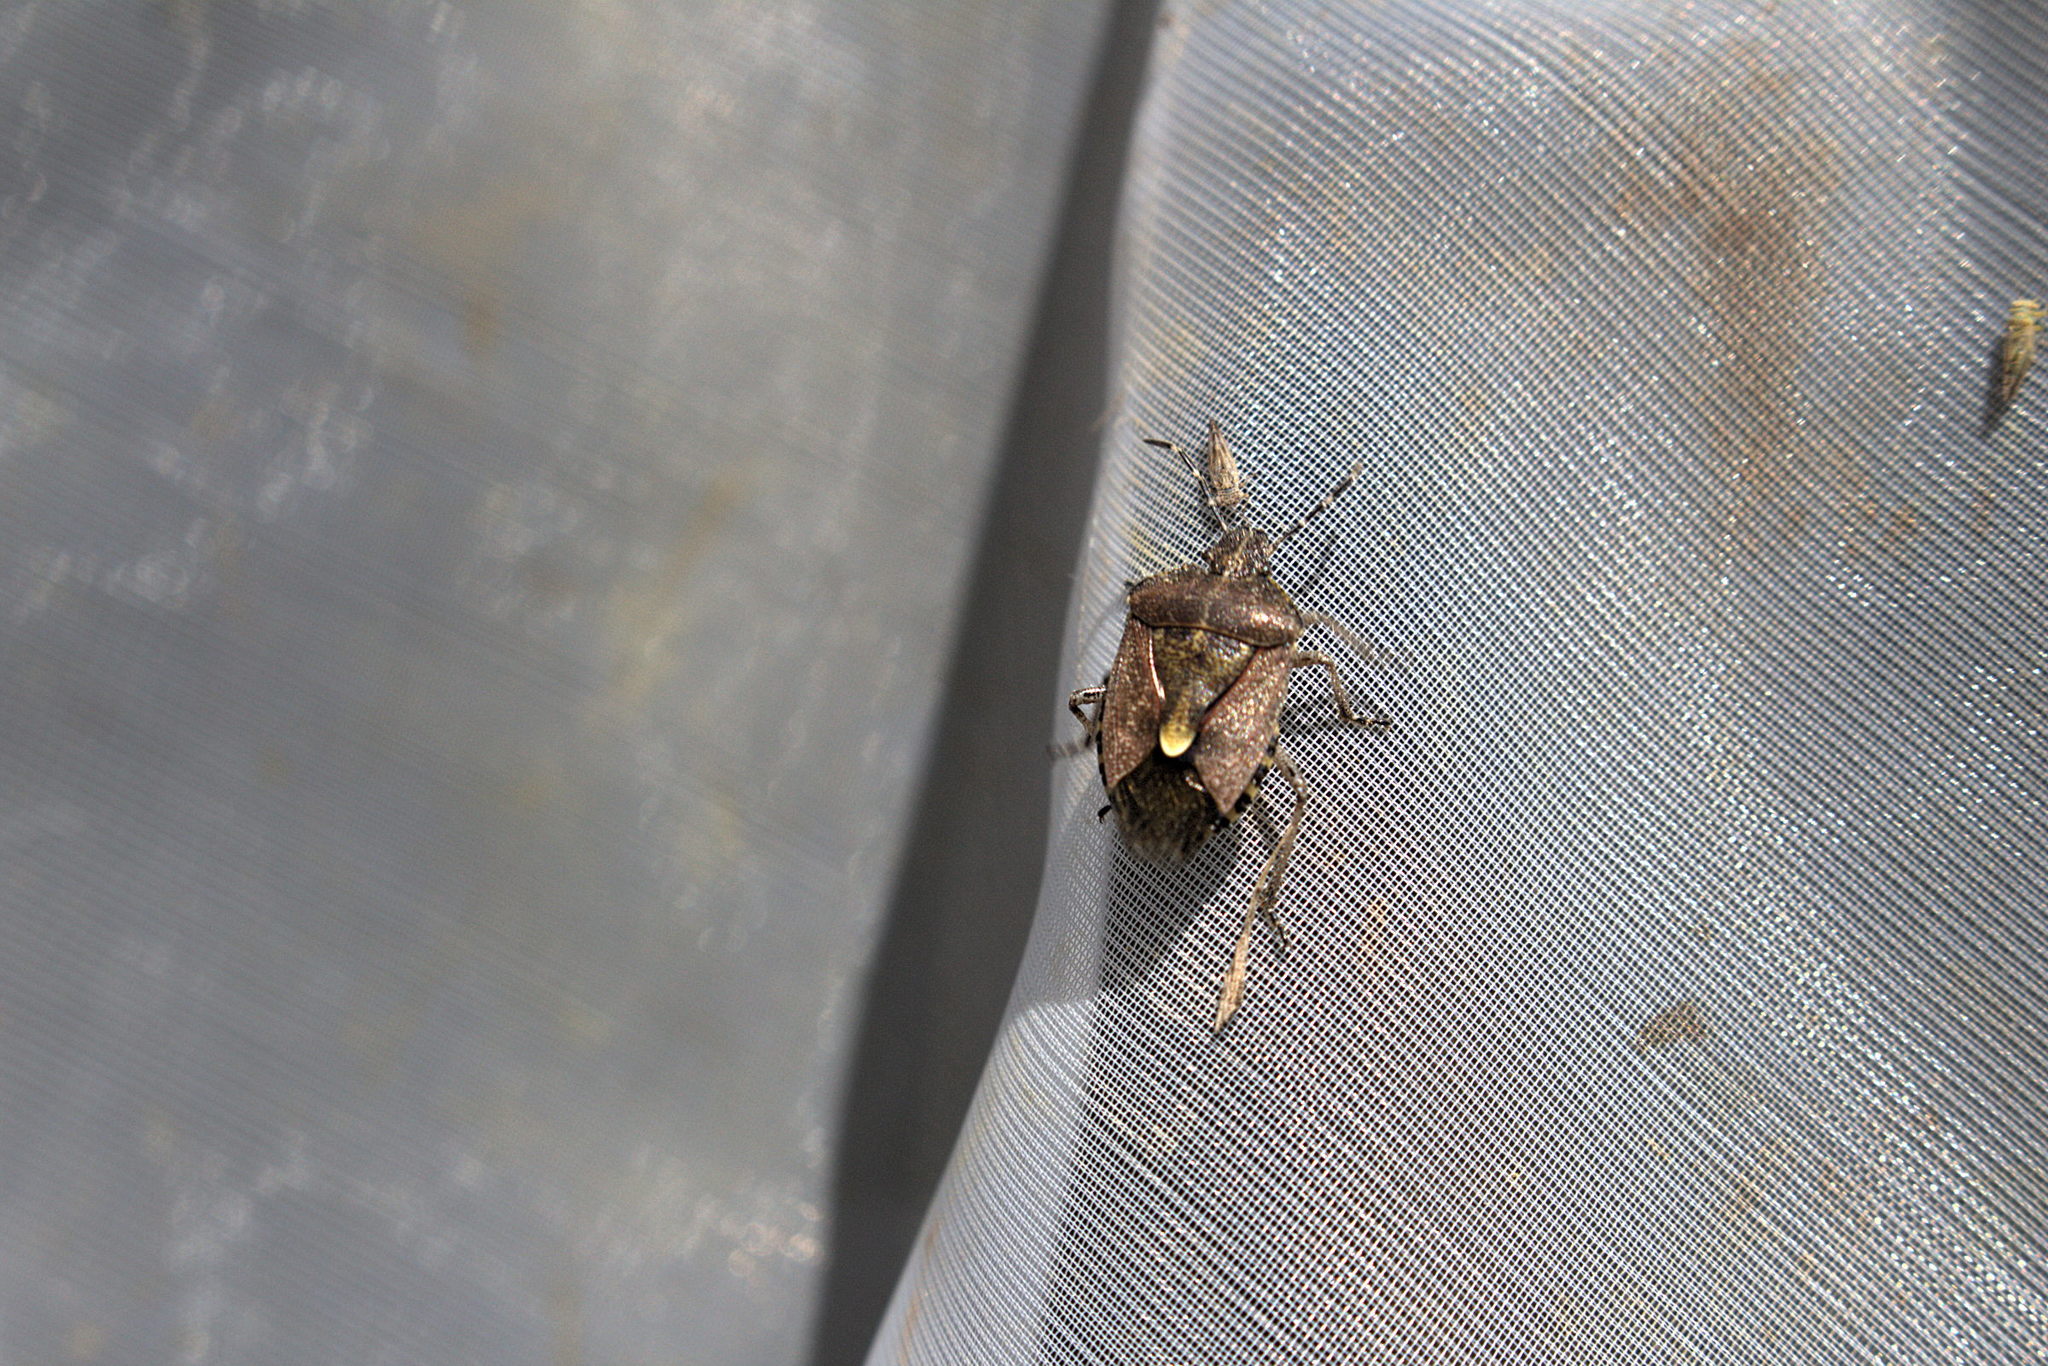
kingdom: Animalia
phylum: Arthropoda
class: Insecta
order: Hemiptera
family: Pentatomidae
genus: Dolycoris
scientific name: Dolycoris baccarum
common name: Sloe bug
